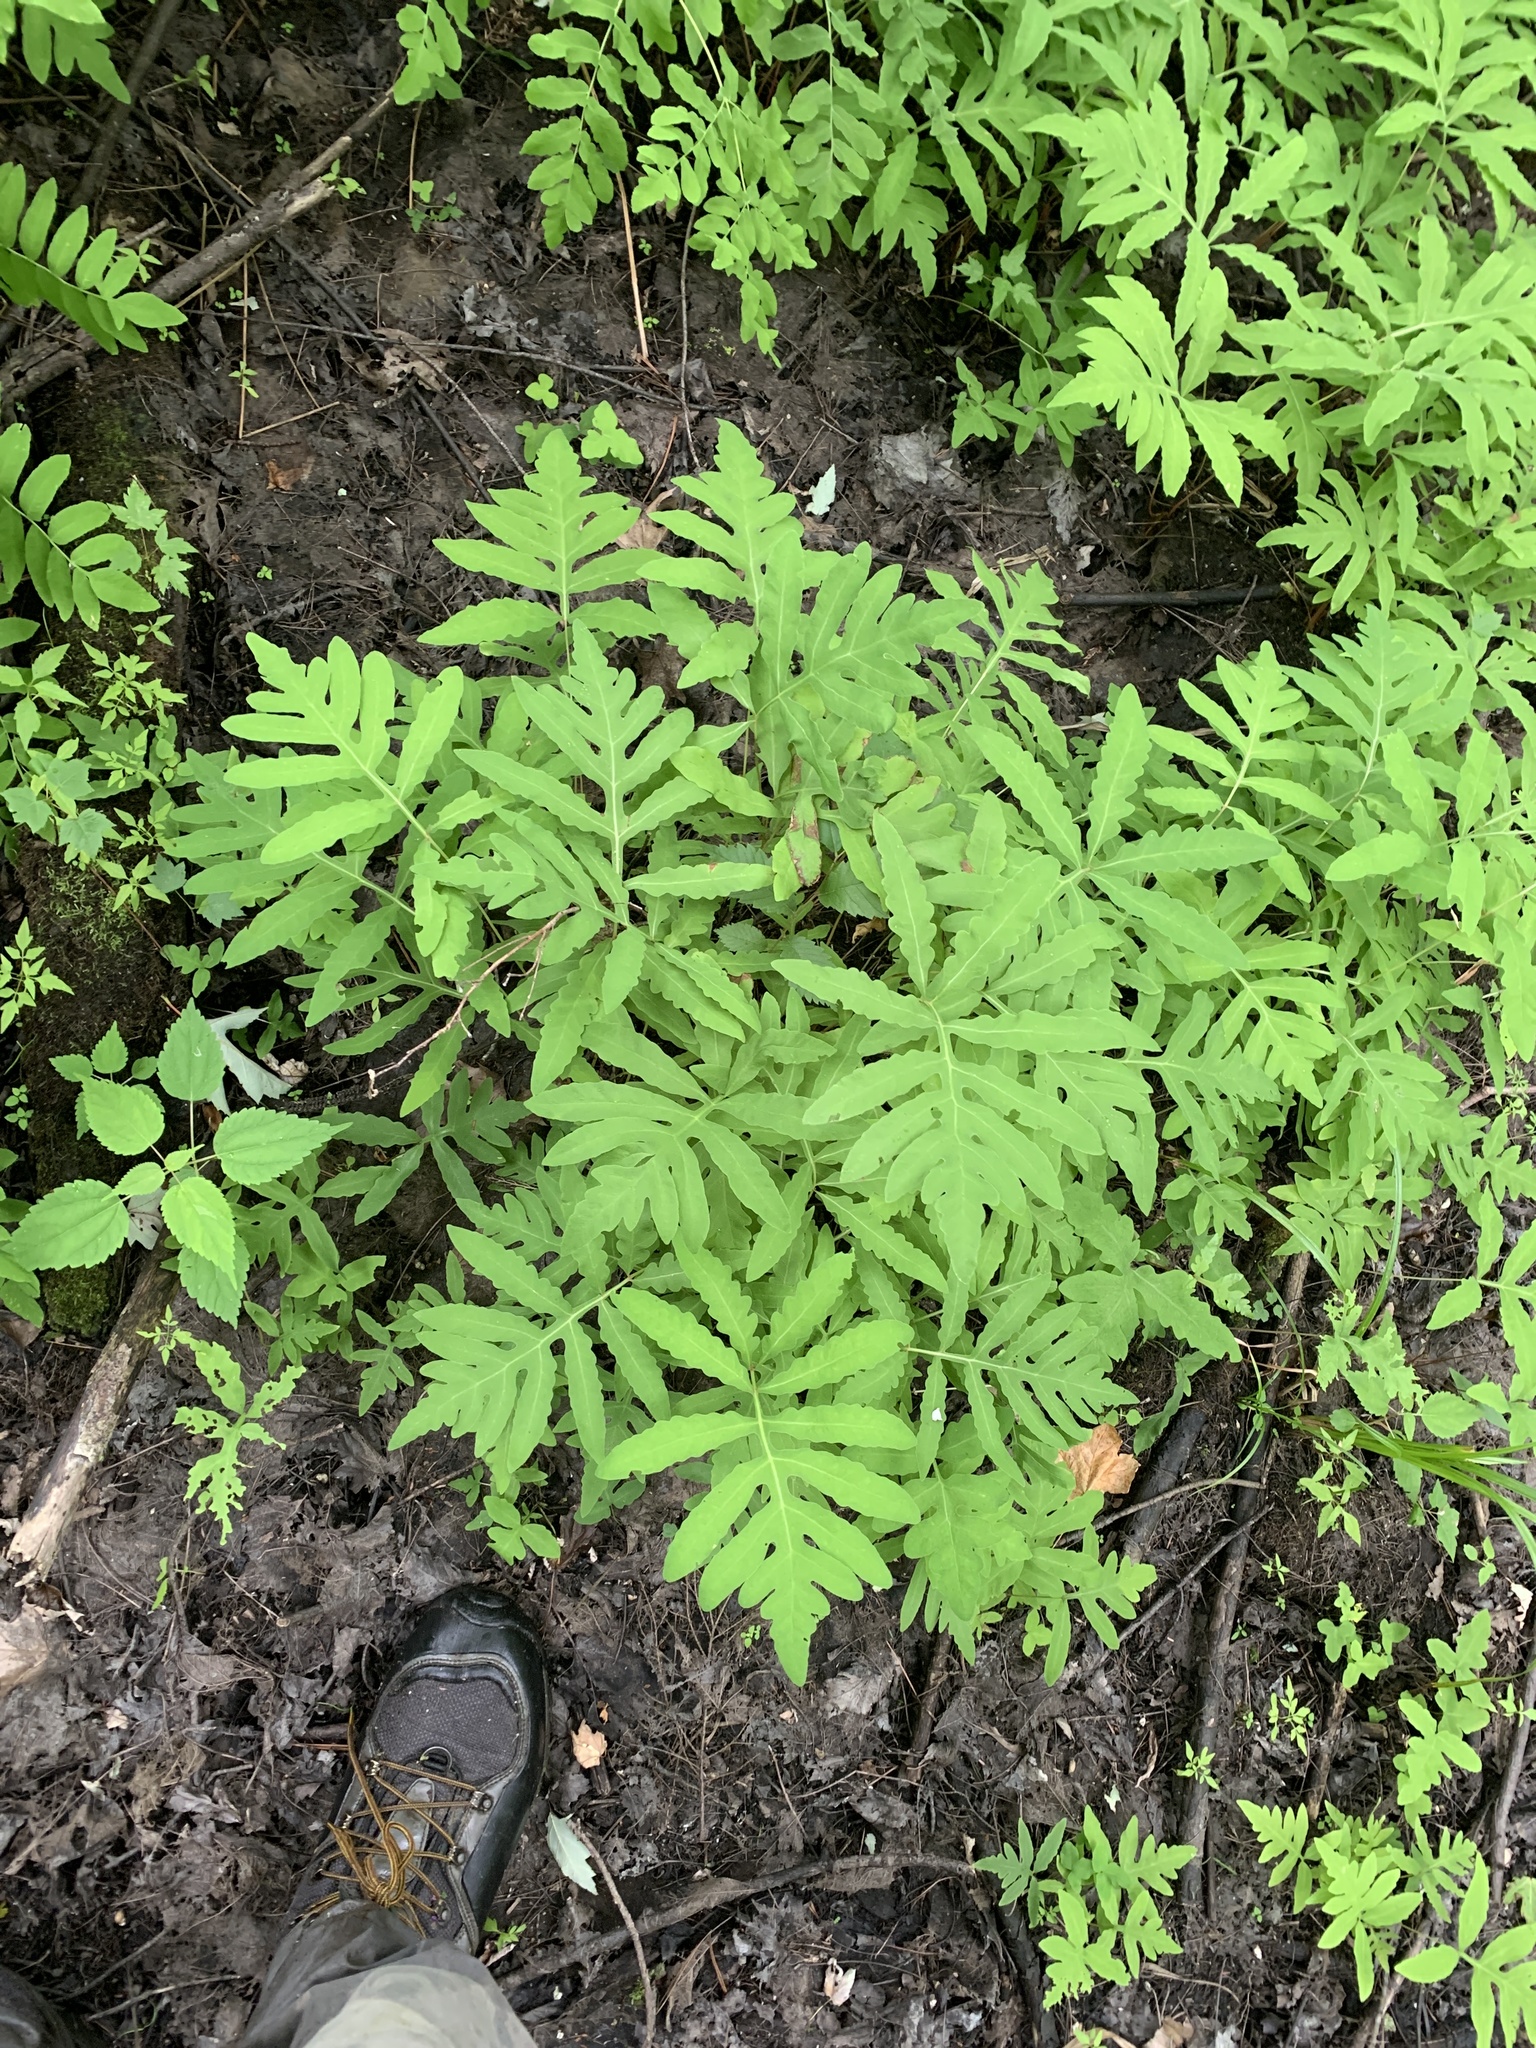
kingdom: Plantae
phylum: Tracheophyta
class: Polypodiopsida
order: Polypodiales
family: Onocleaceae
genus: Onoclea
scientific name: Onoclea sensibilis
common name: Sensitive fern
